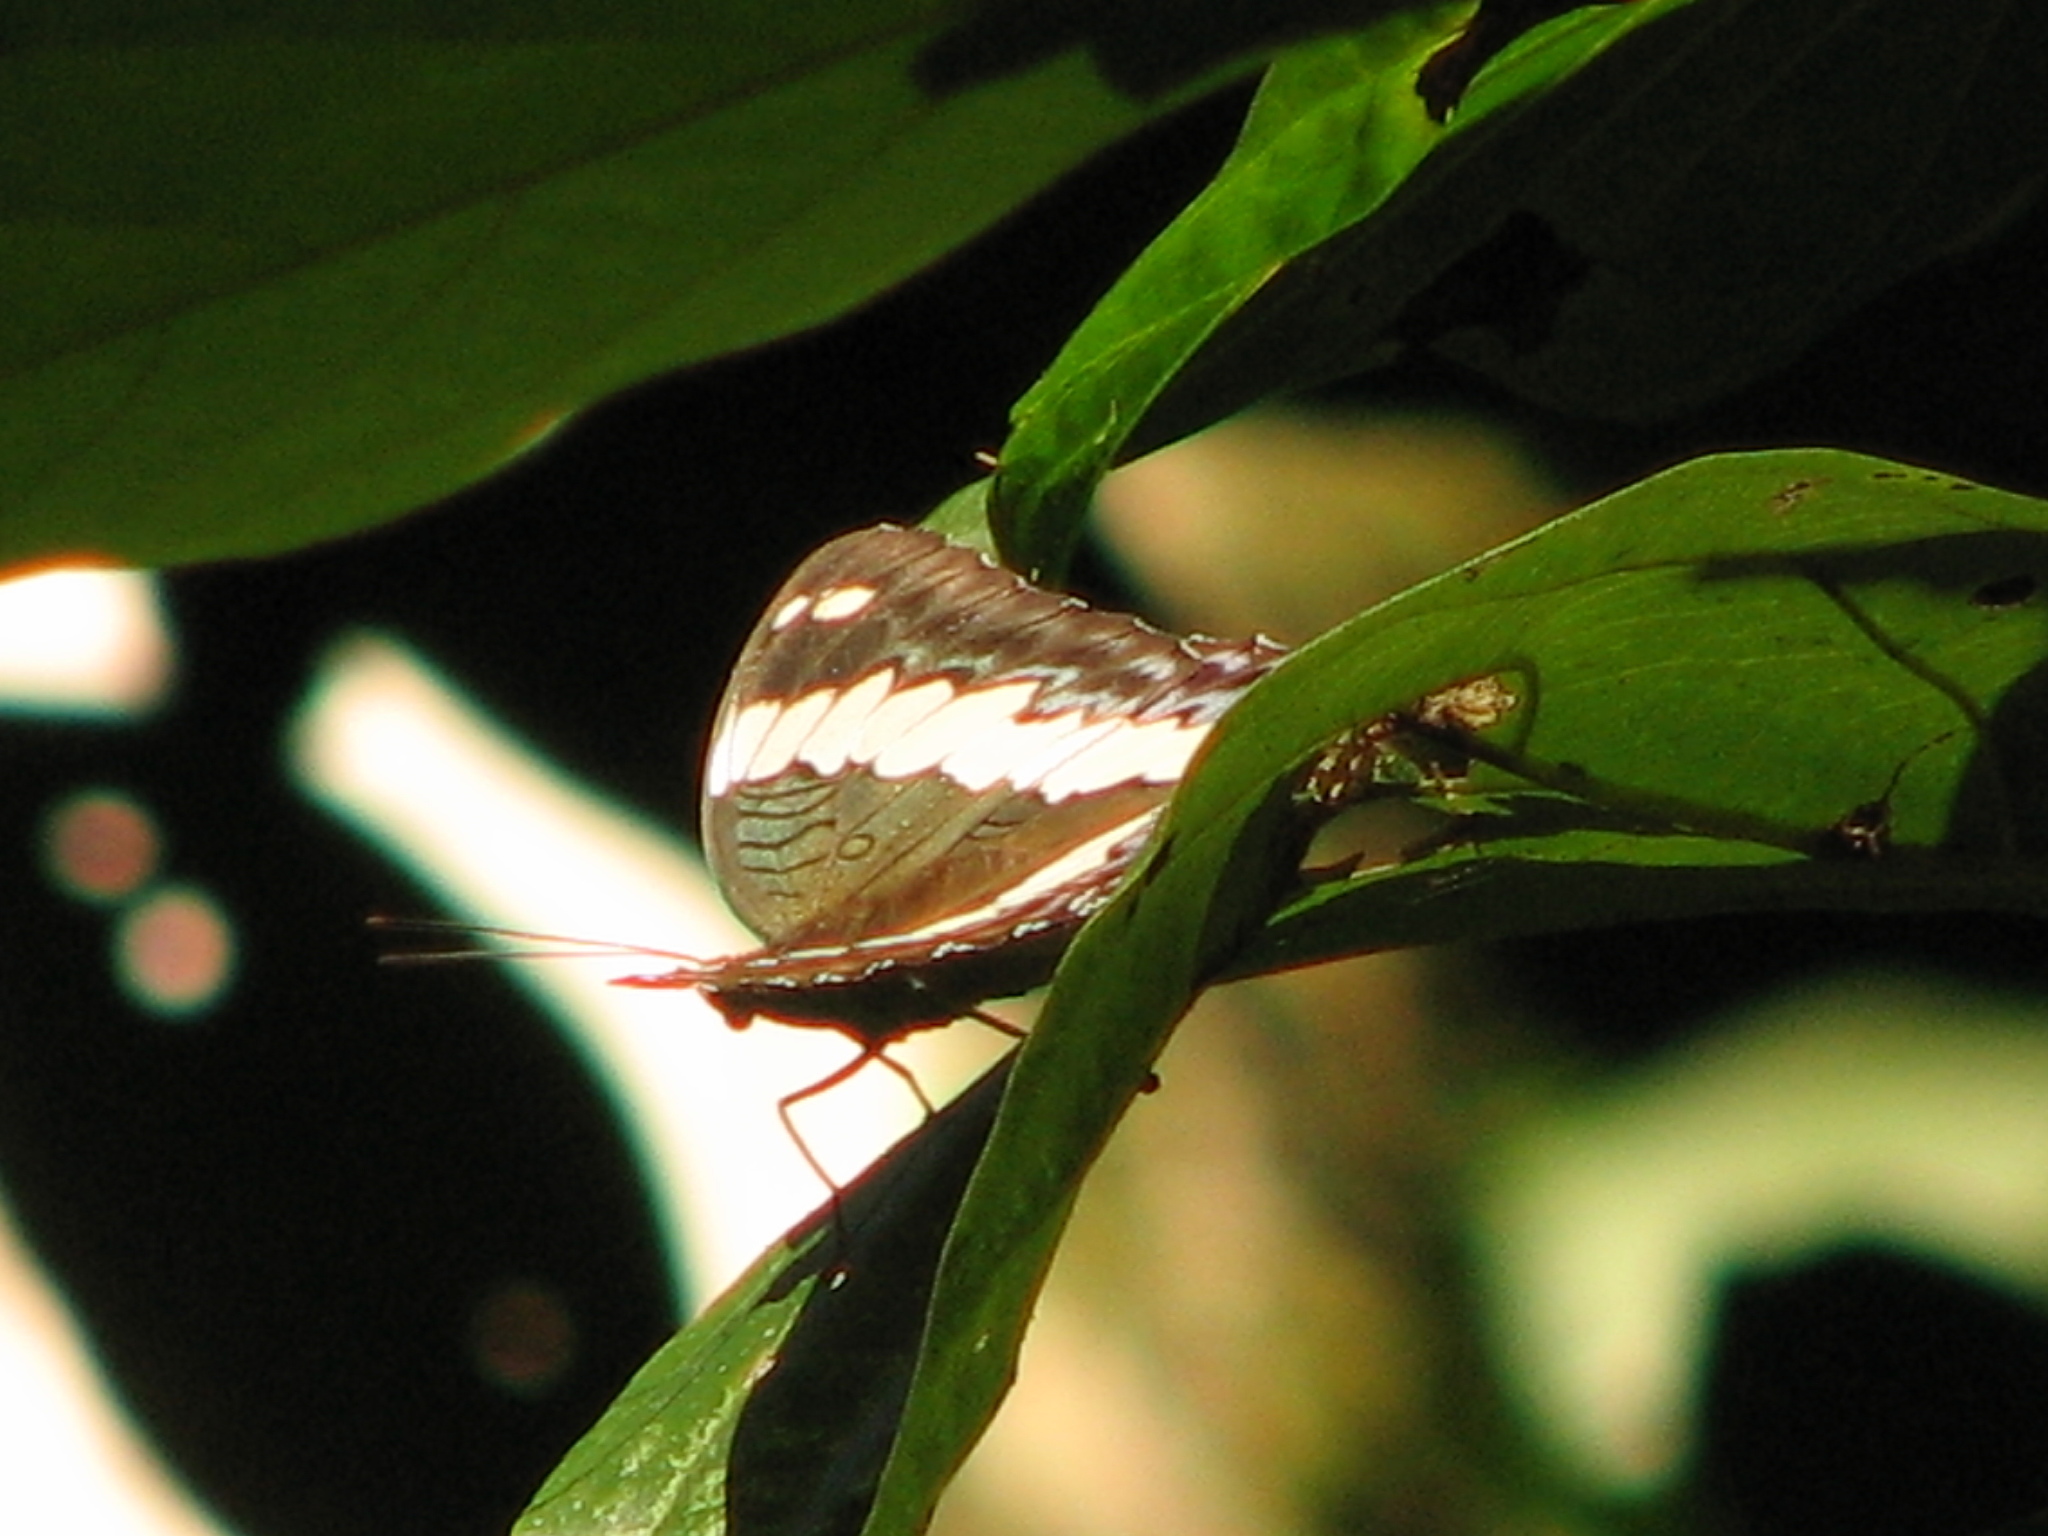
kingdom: Animalia
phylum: Arthropoda
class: Insecta
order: Lepidoptera
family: Nymphalidae
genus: Kallima
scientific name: Kallima sylvia
